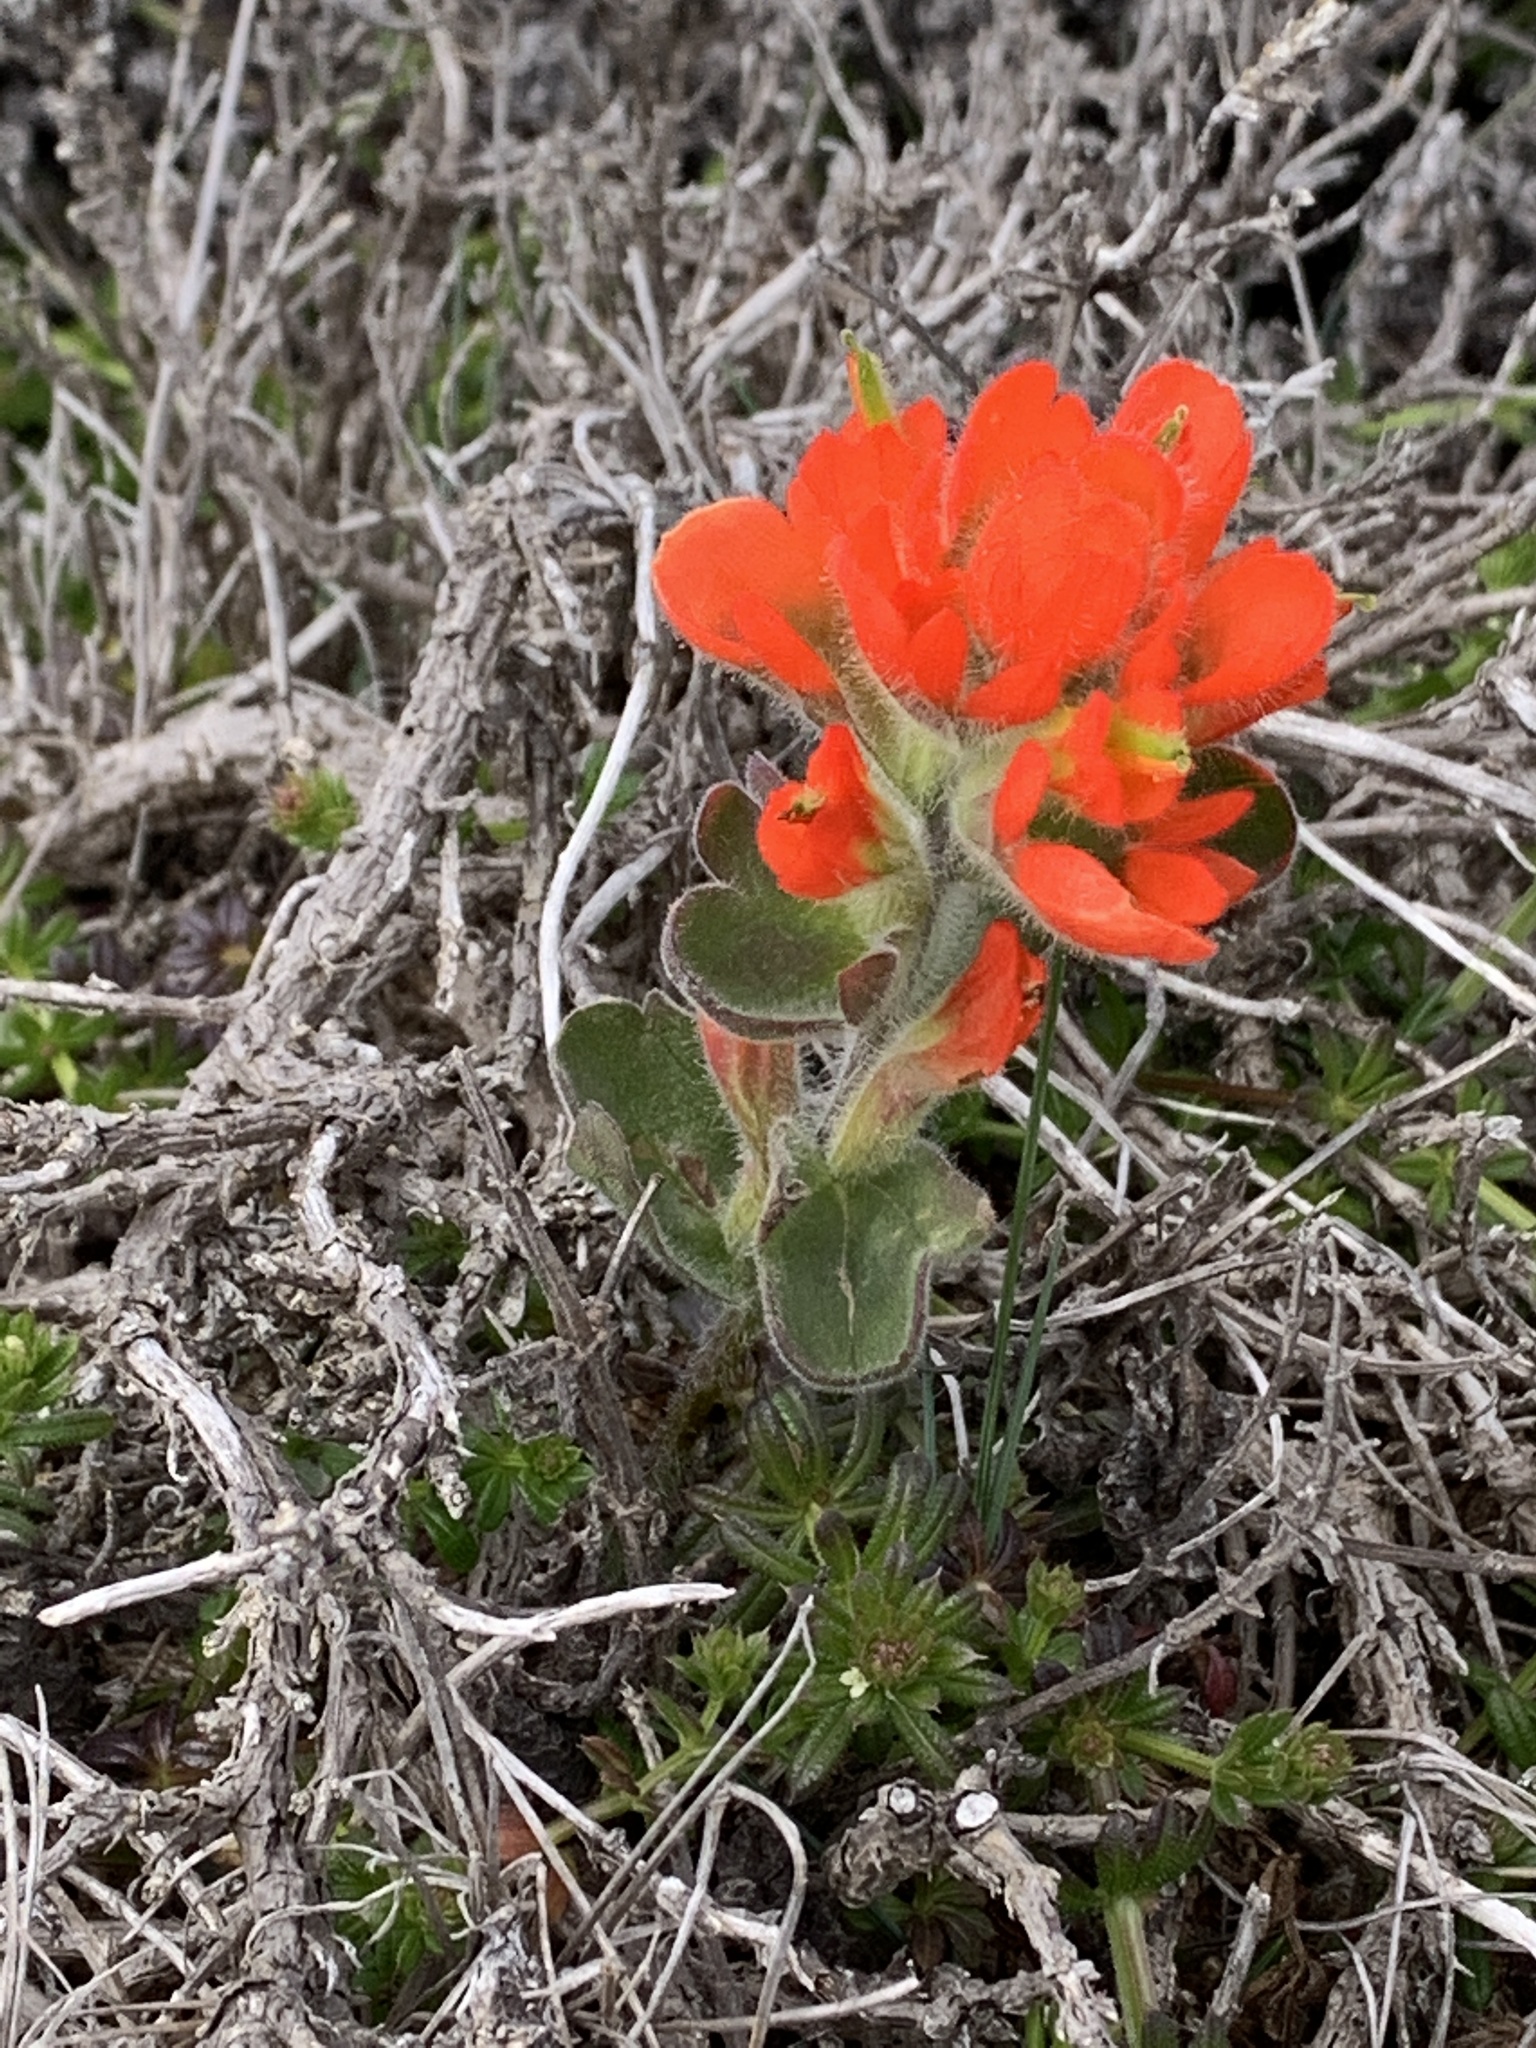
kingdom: Plantae
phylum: Tracheophyta
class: Magnoliopsida
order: Lamiales
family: Orobanchaceae
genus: Castilleja
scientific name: Castilleja mendocinensis
